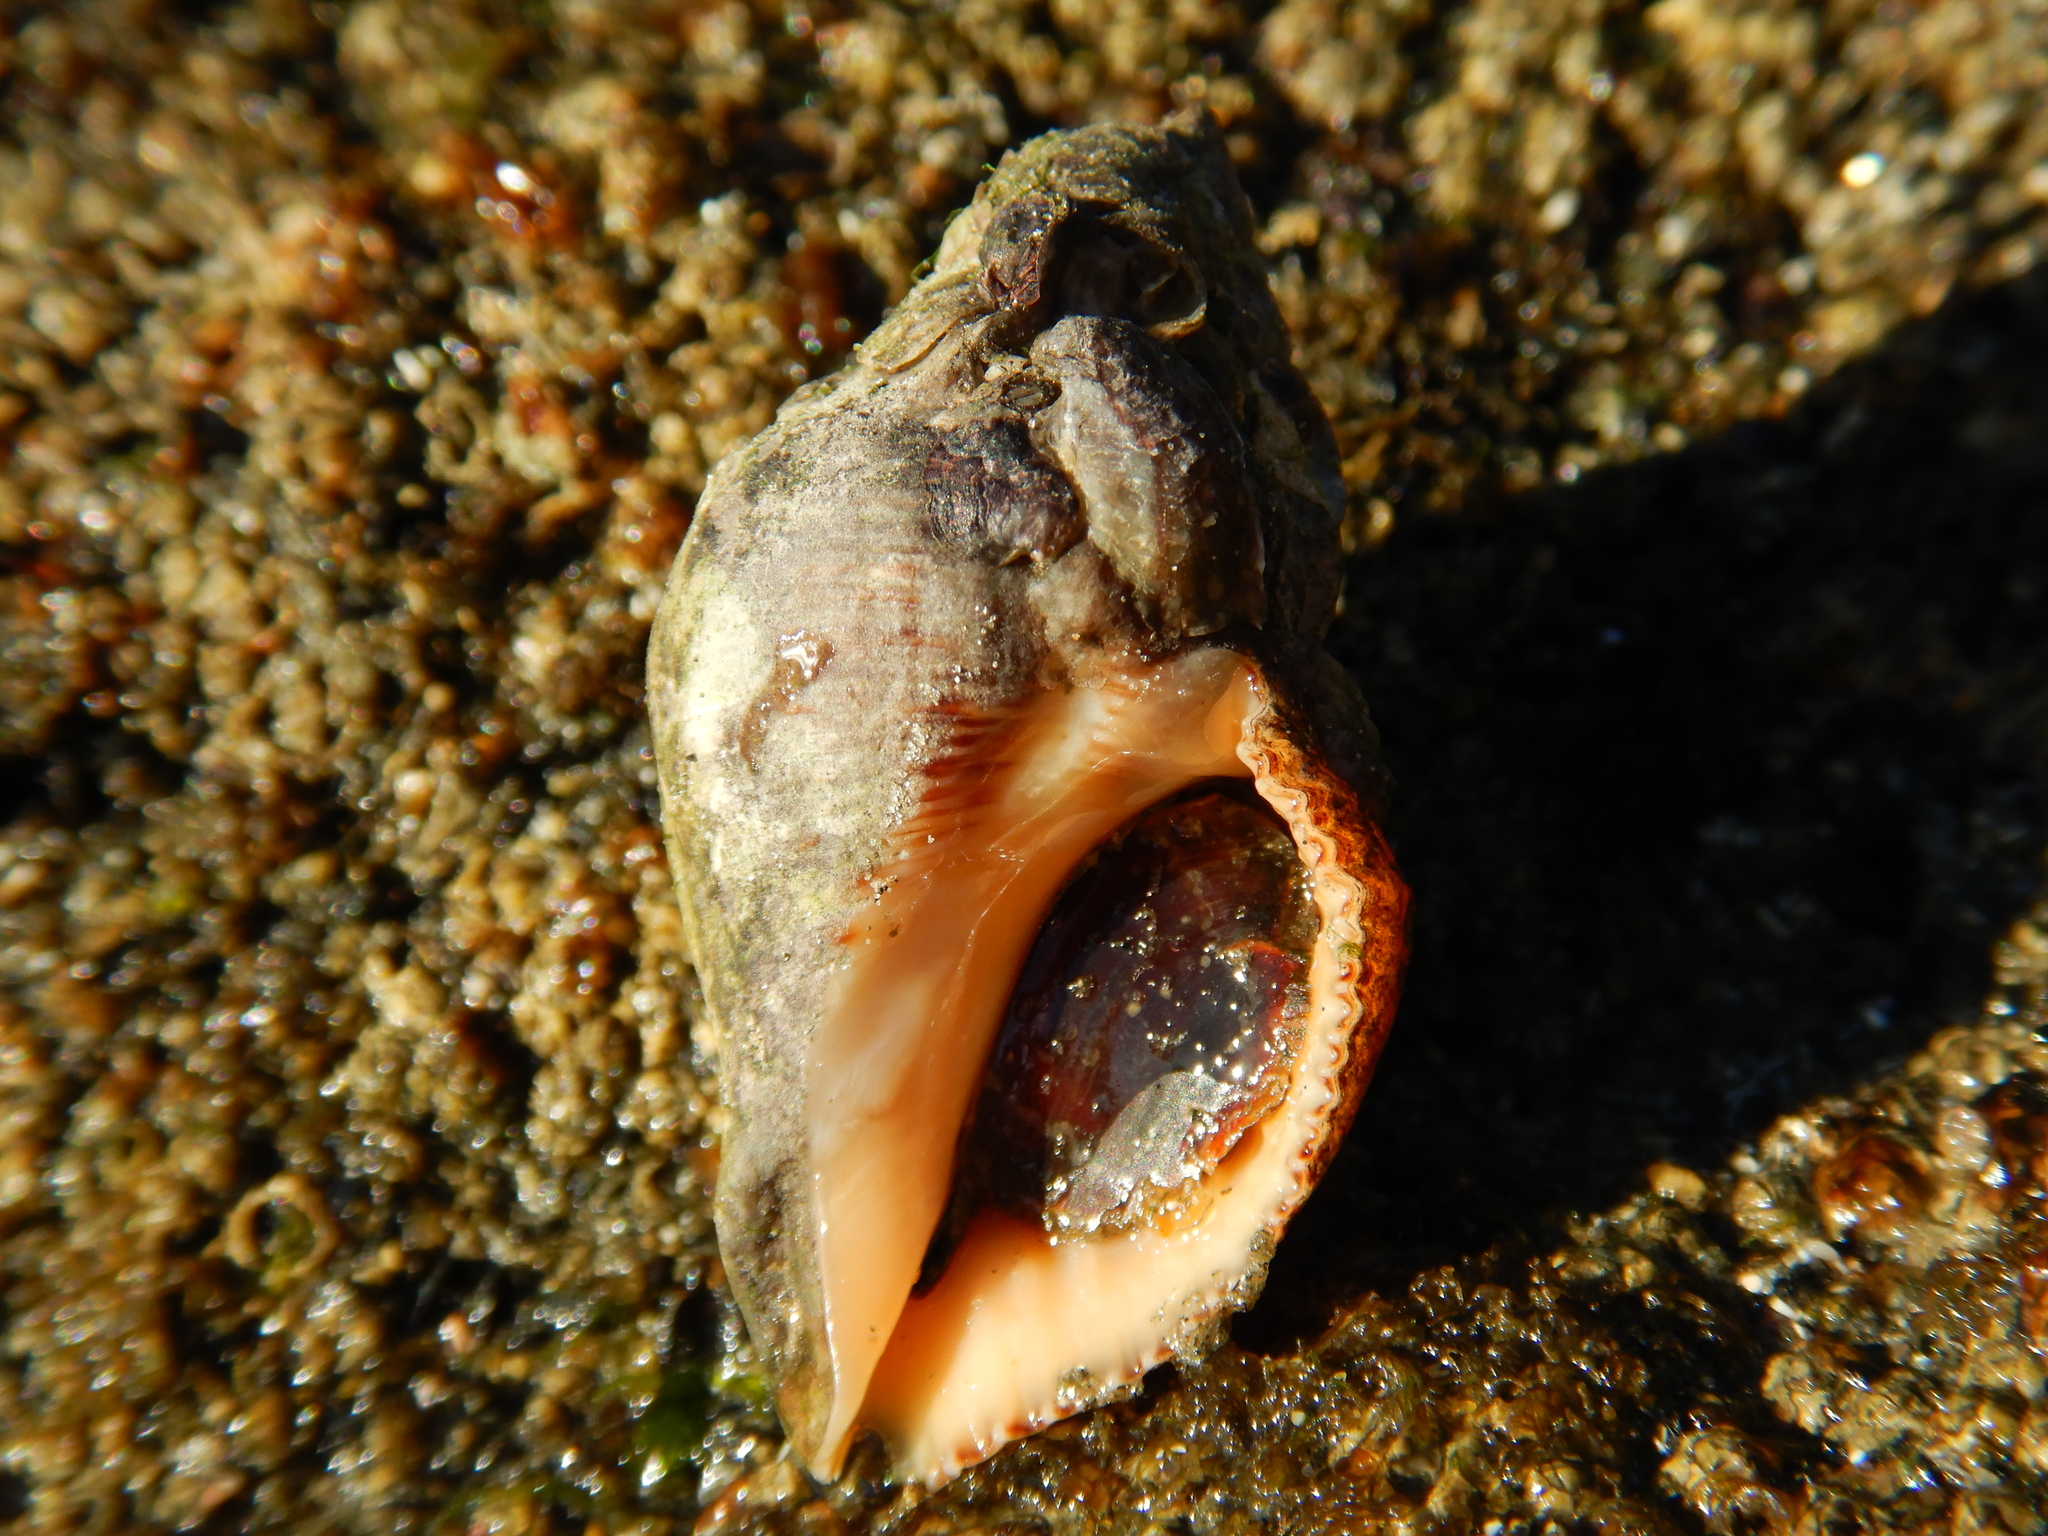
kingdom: Animalia
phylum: Mollusca
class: Gastropoda
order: Neogastropoda
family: Muricidae
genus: Stramonita
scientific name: Stramonita brasiliensis
